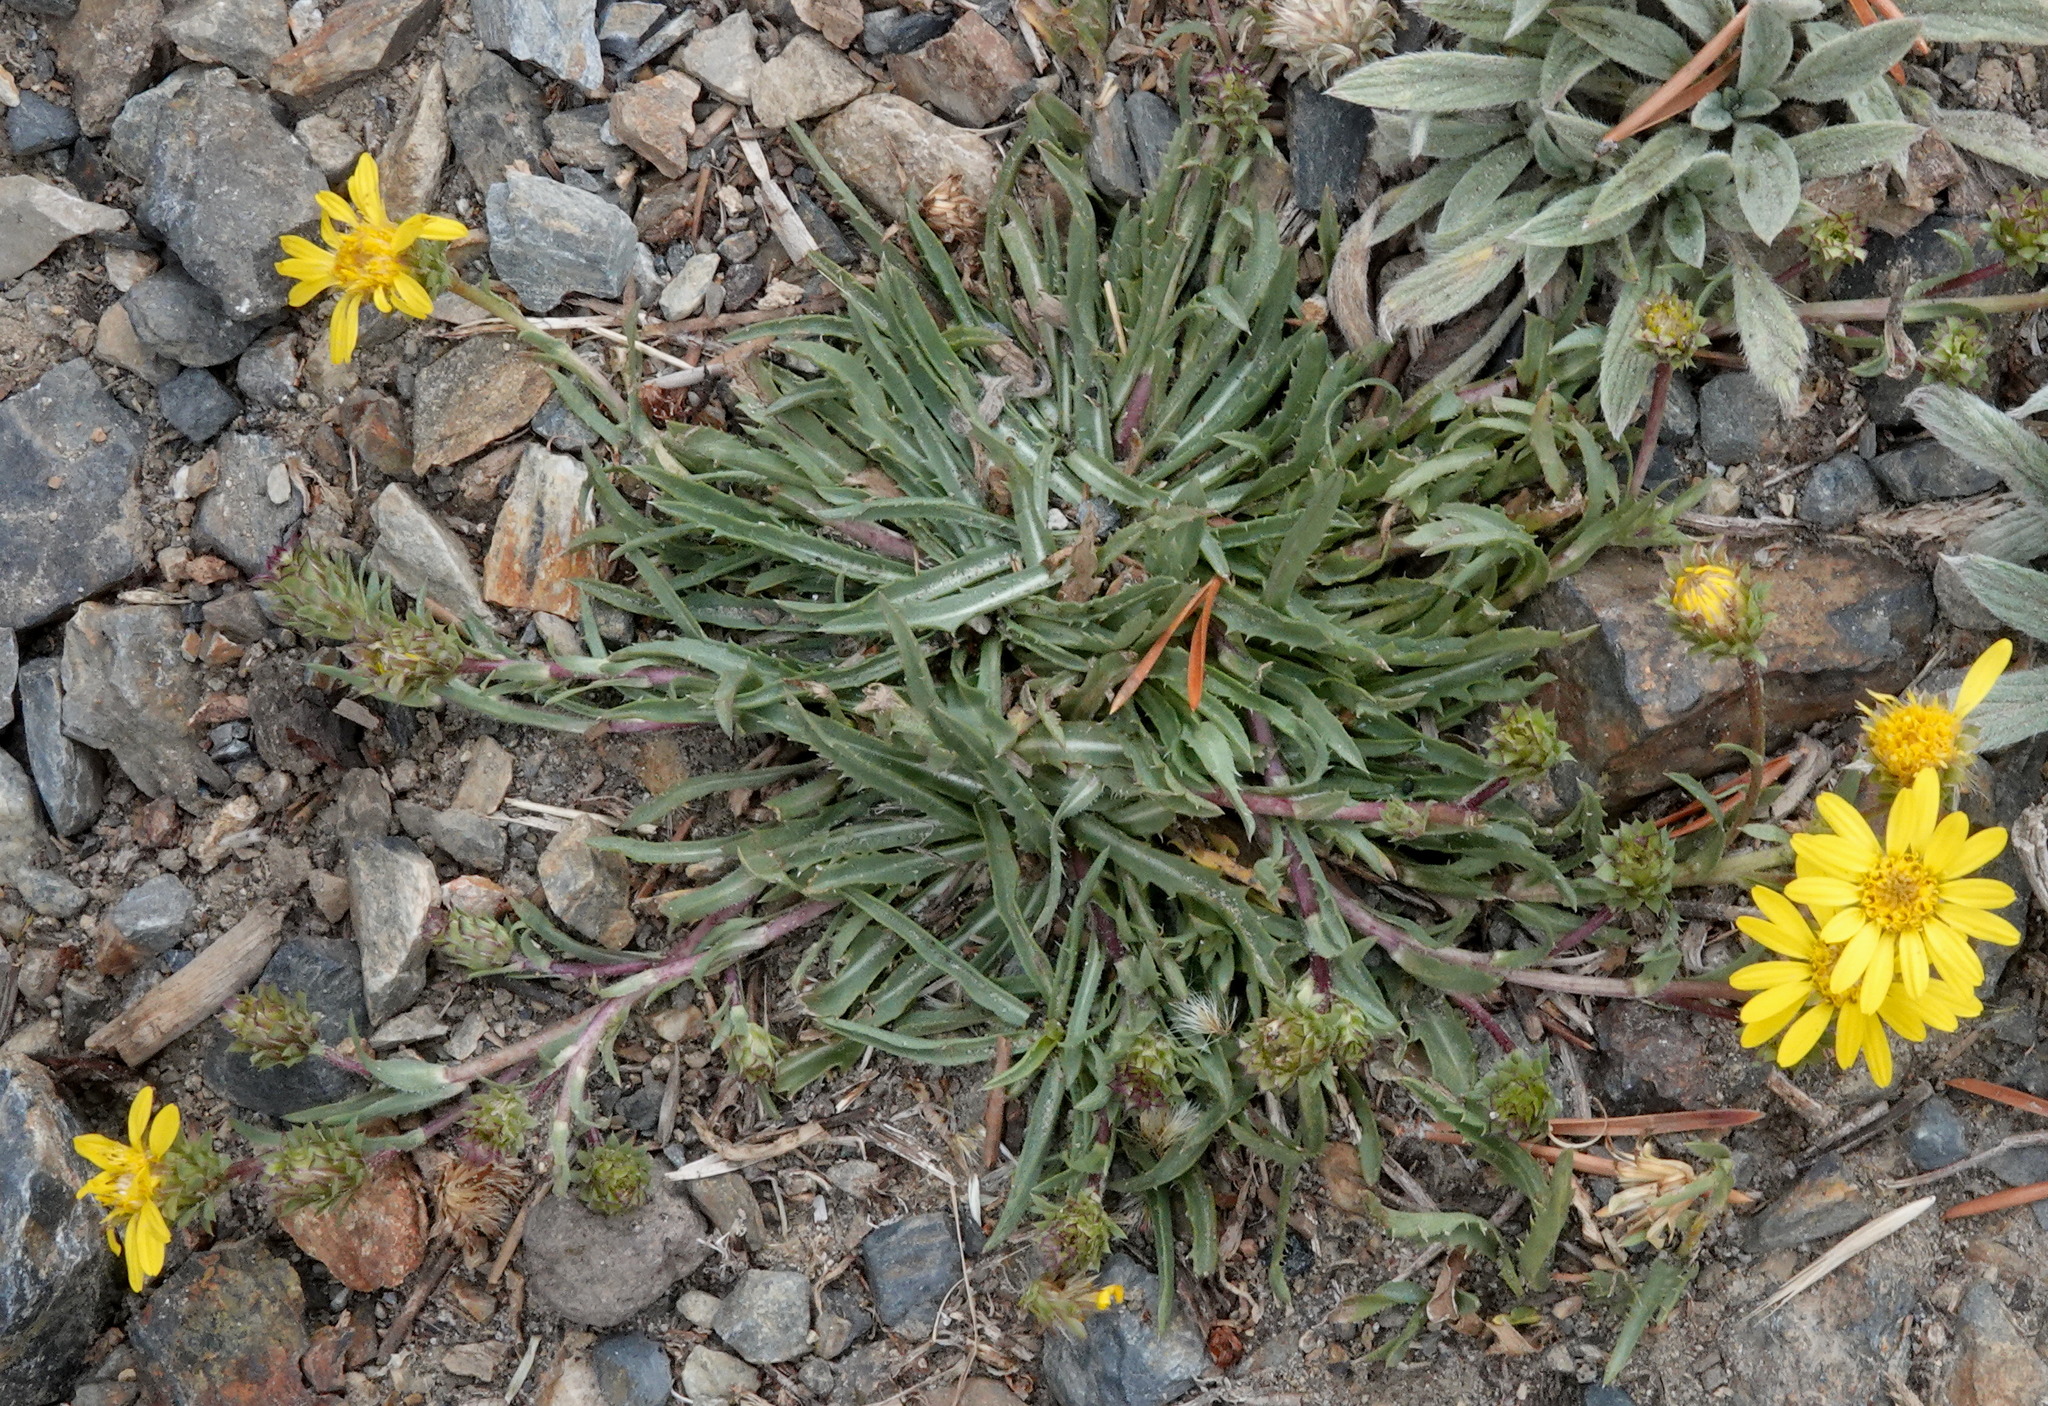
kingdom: Plantae
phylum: Tracheophyta
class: Magnoliopsida
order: Asterales
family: Asteraceae
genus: Pyrrocoma
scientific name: Pyrrocoma apargioides
